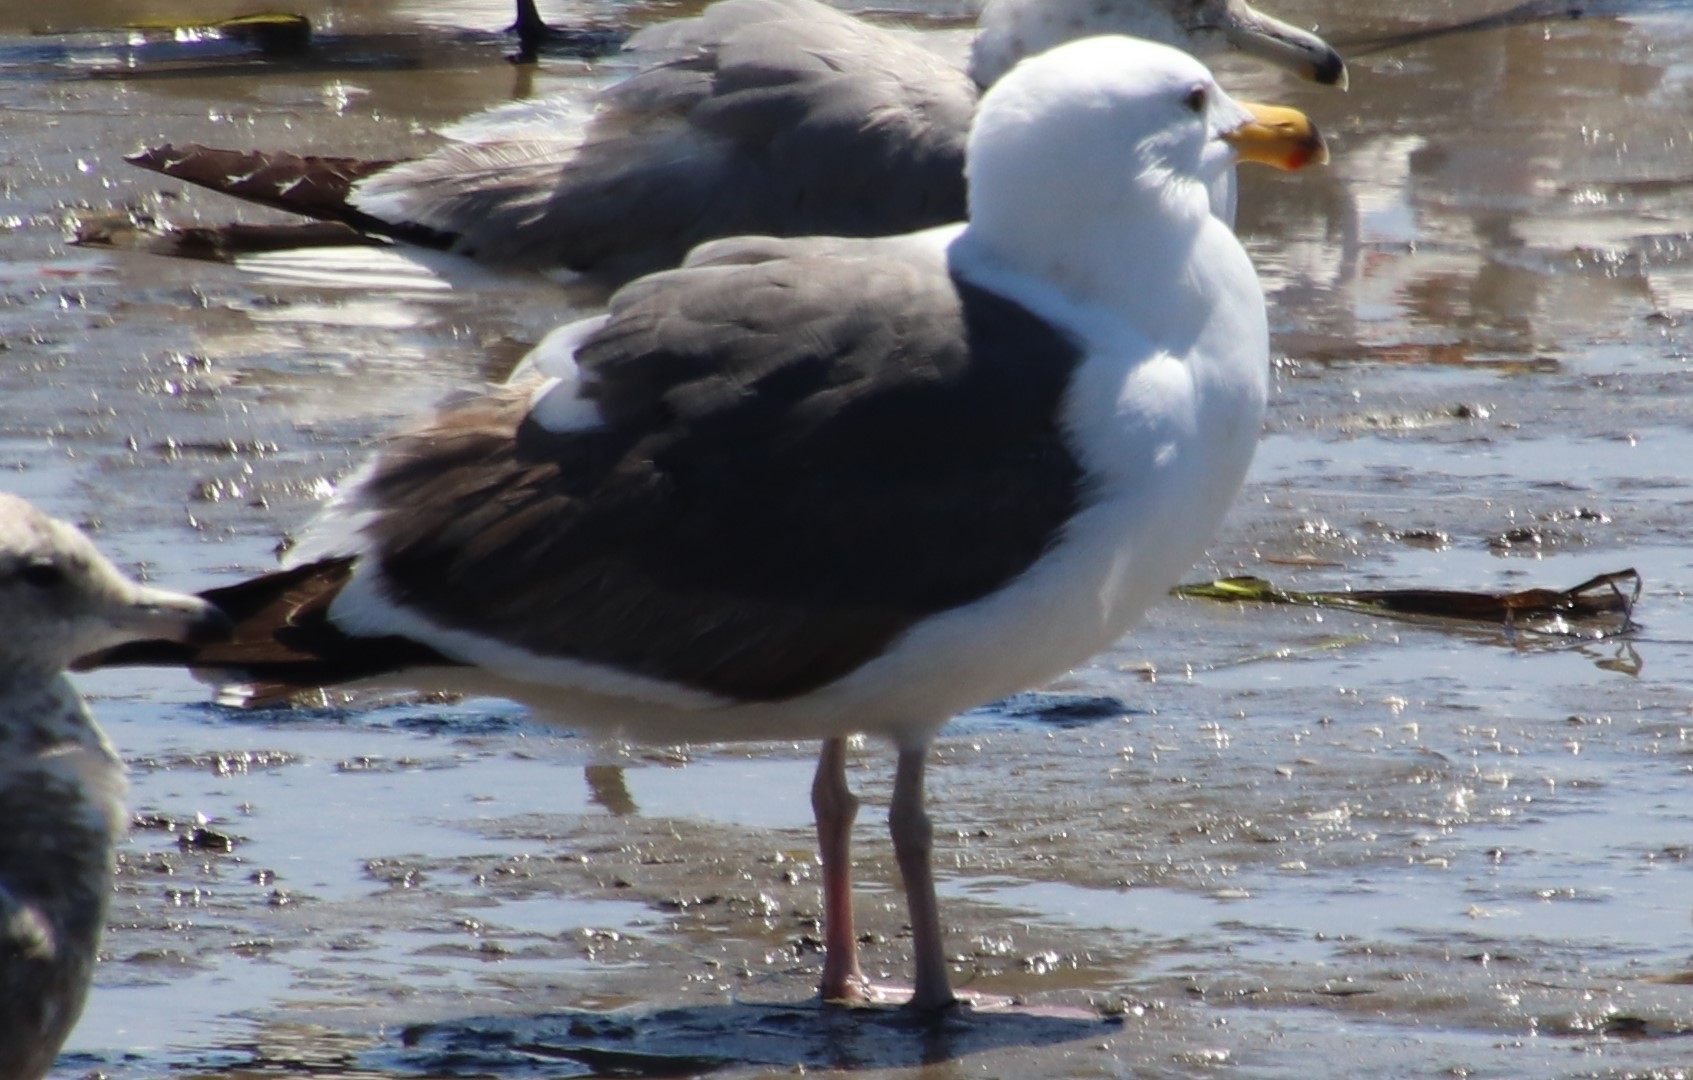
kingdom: Animalia
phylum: Chordata
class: Aves
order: Charadriiformes
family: Laridae
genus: Larus
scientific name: Larus occidentalis
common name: Western gull
